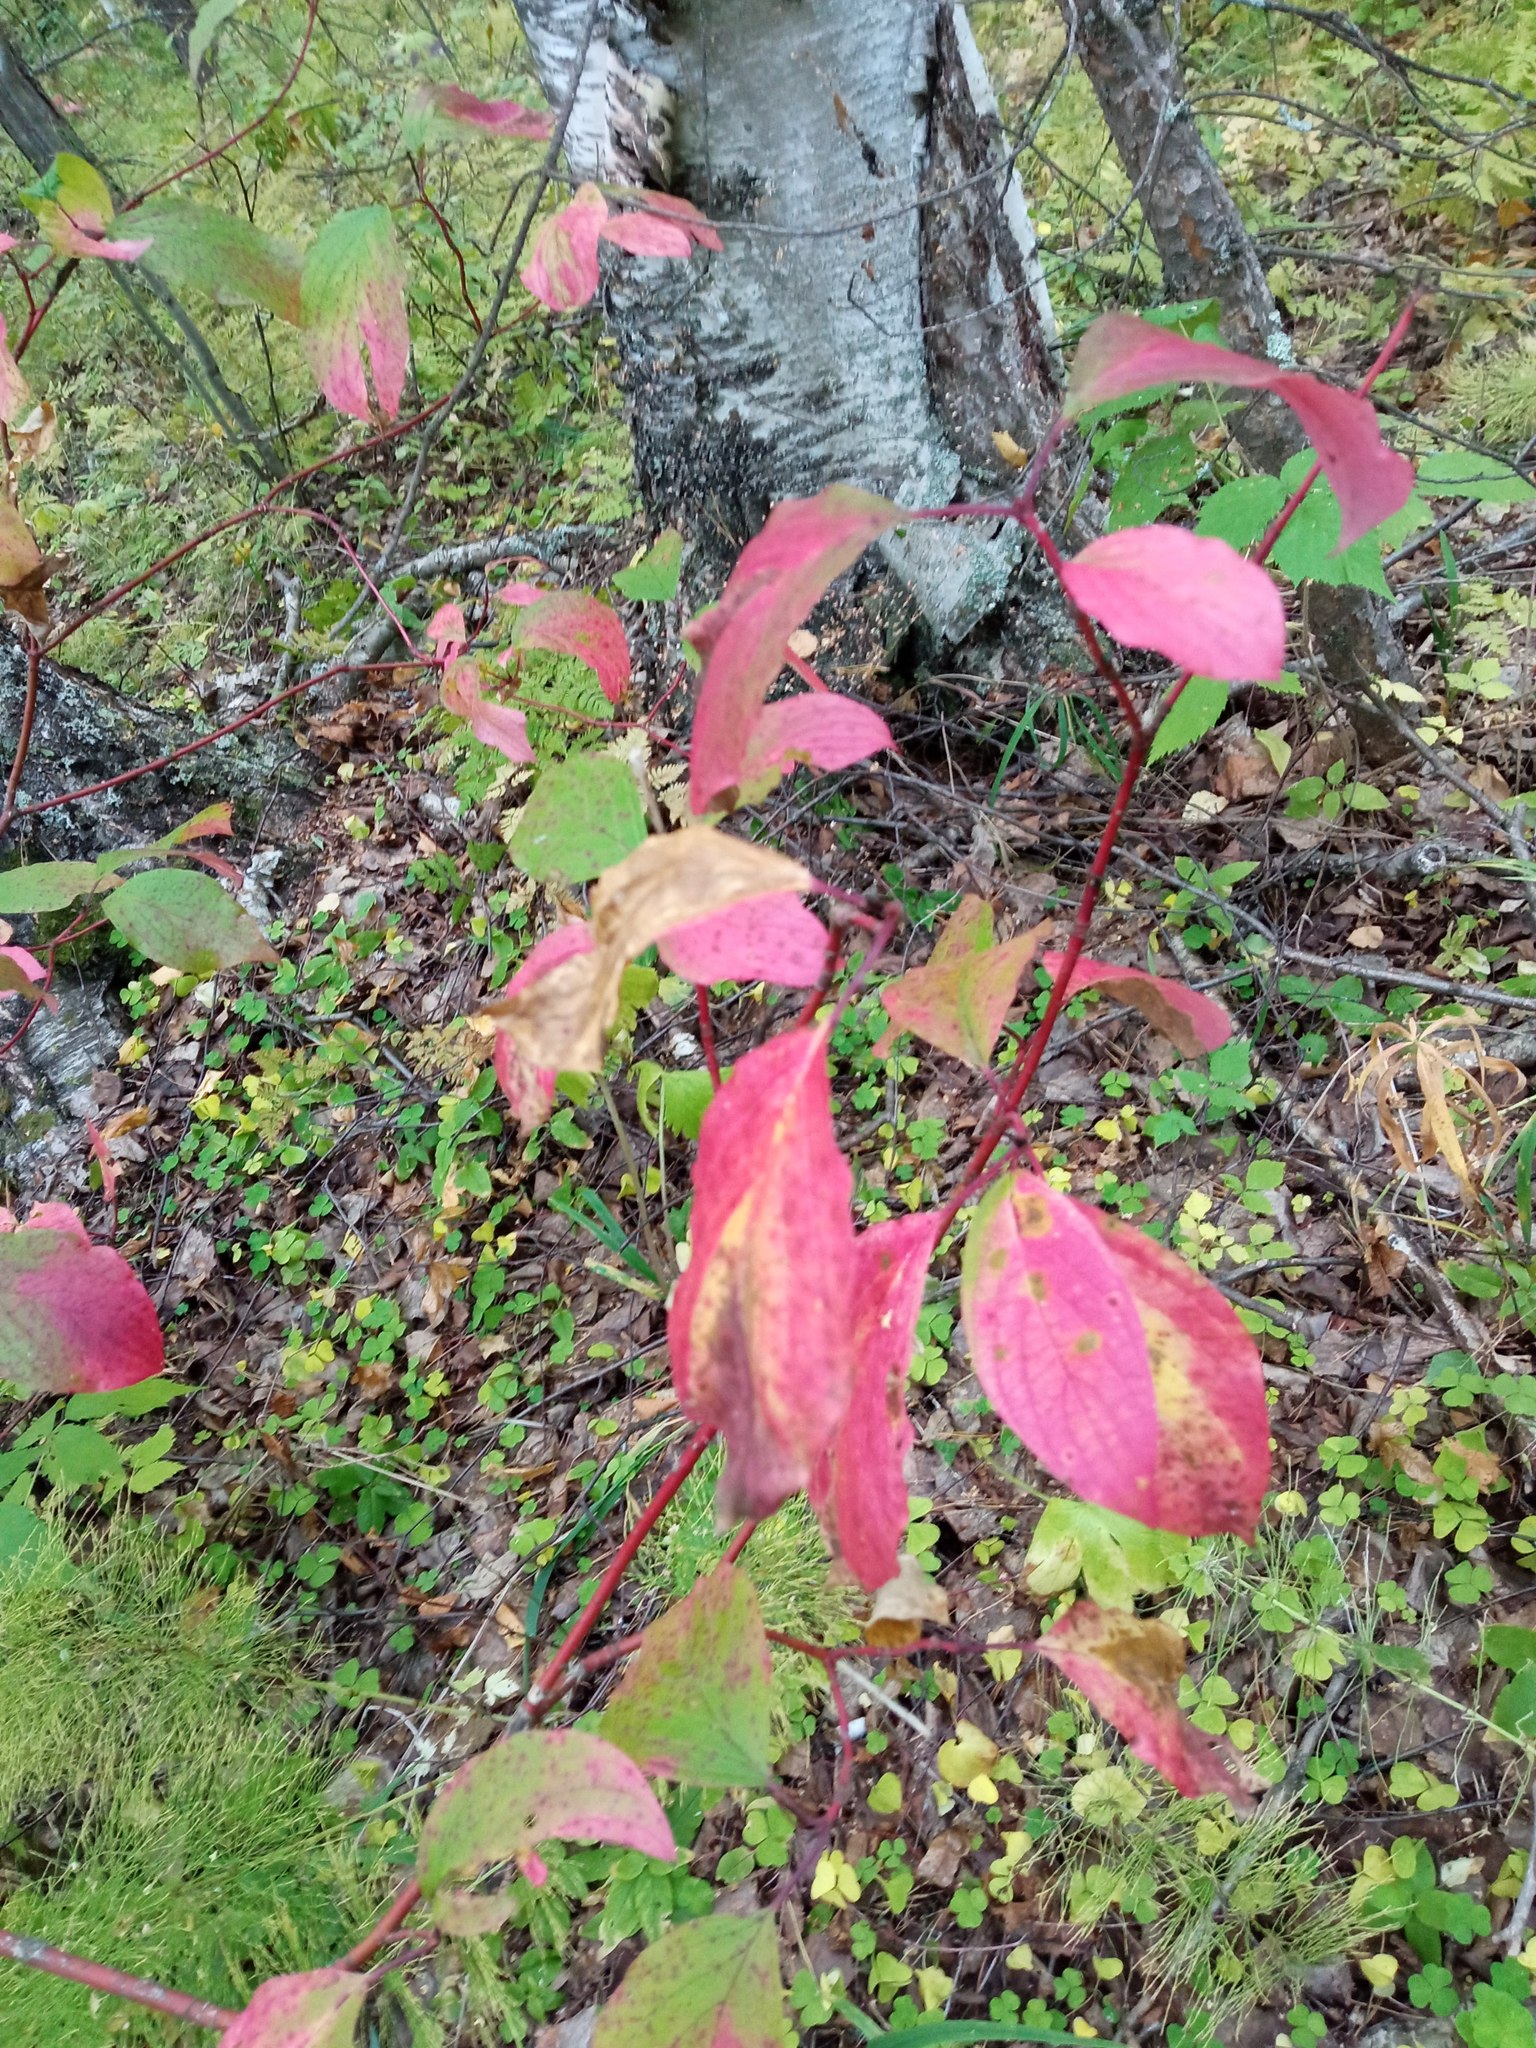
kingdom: Plantae
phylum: Tracheophyta
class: Magnoliopsida
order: Cornales
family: Cornaceae
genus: Cornus
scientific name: Cornus alba
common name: White dogwood
